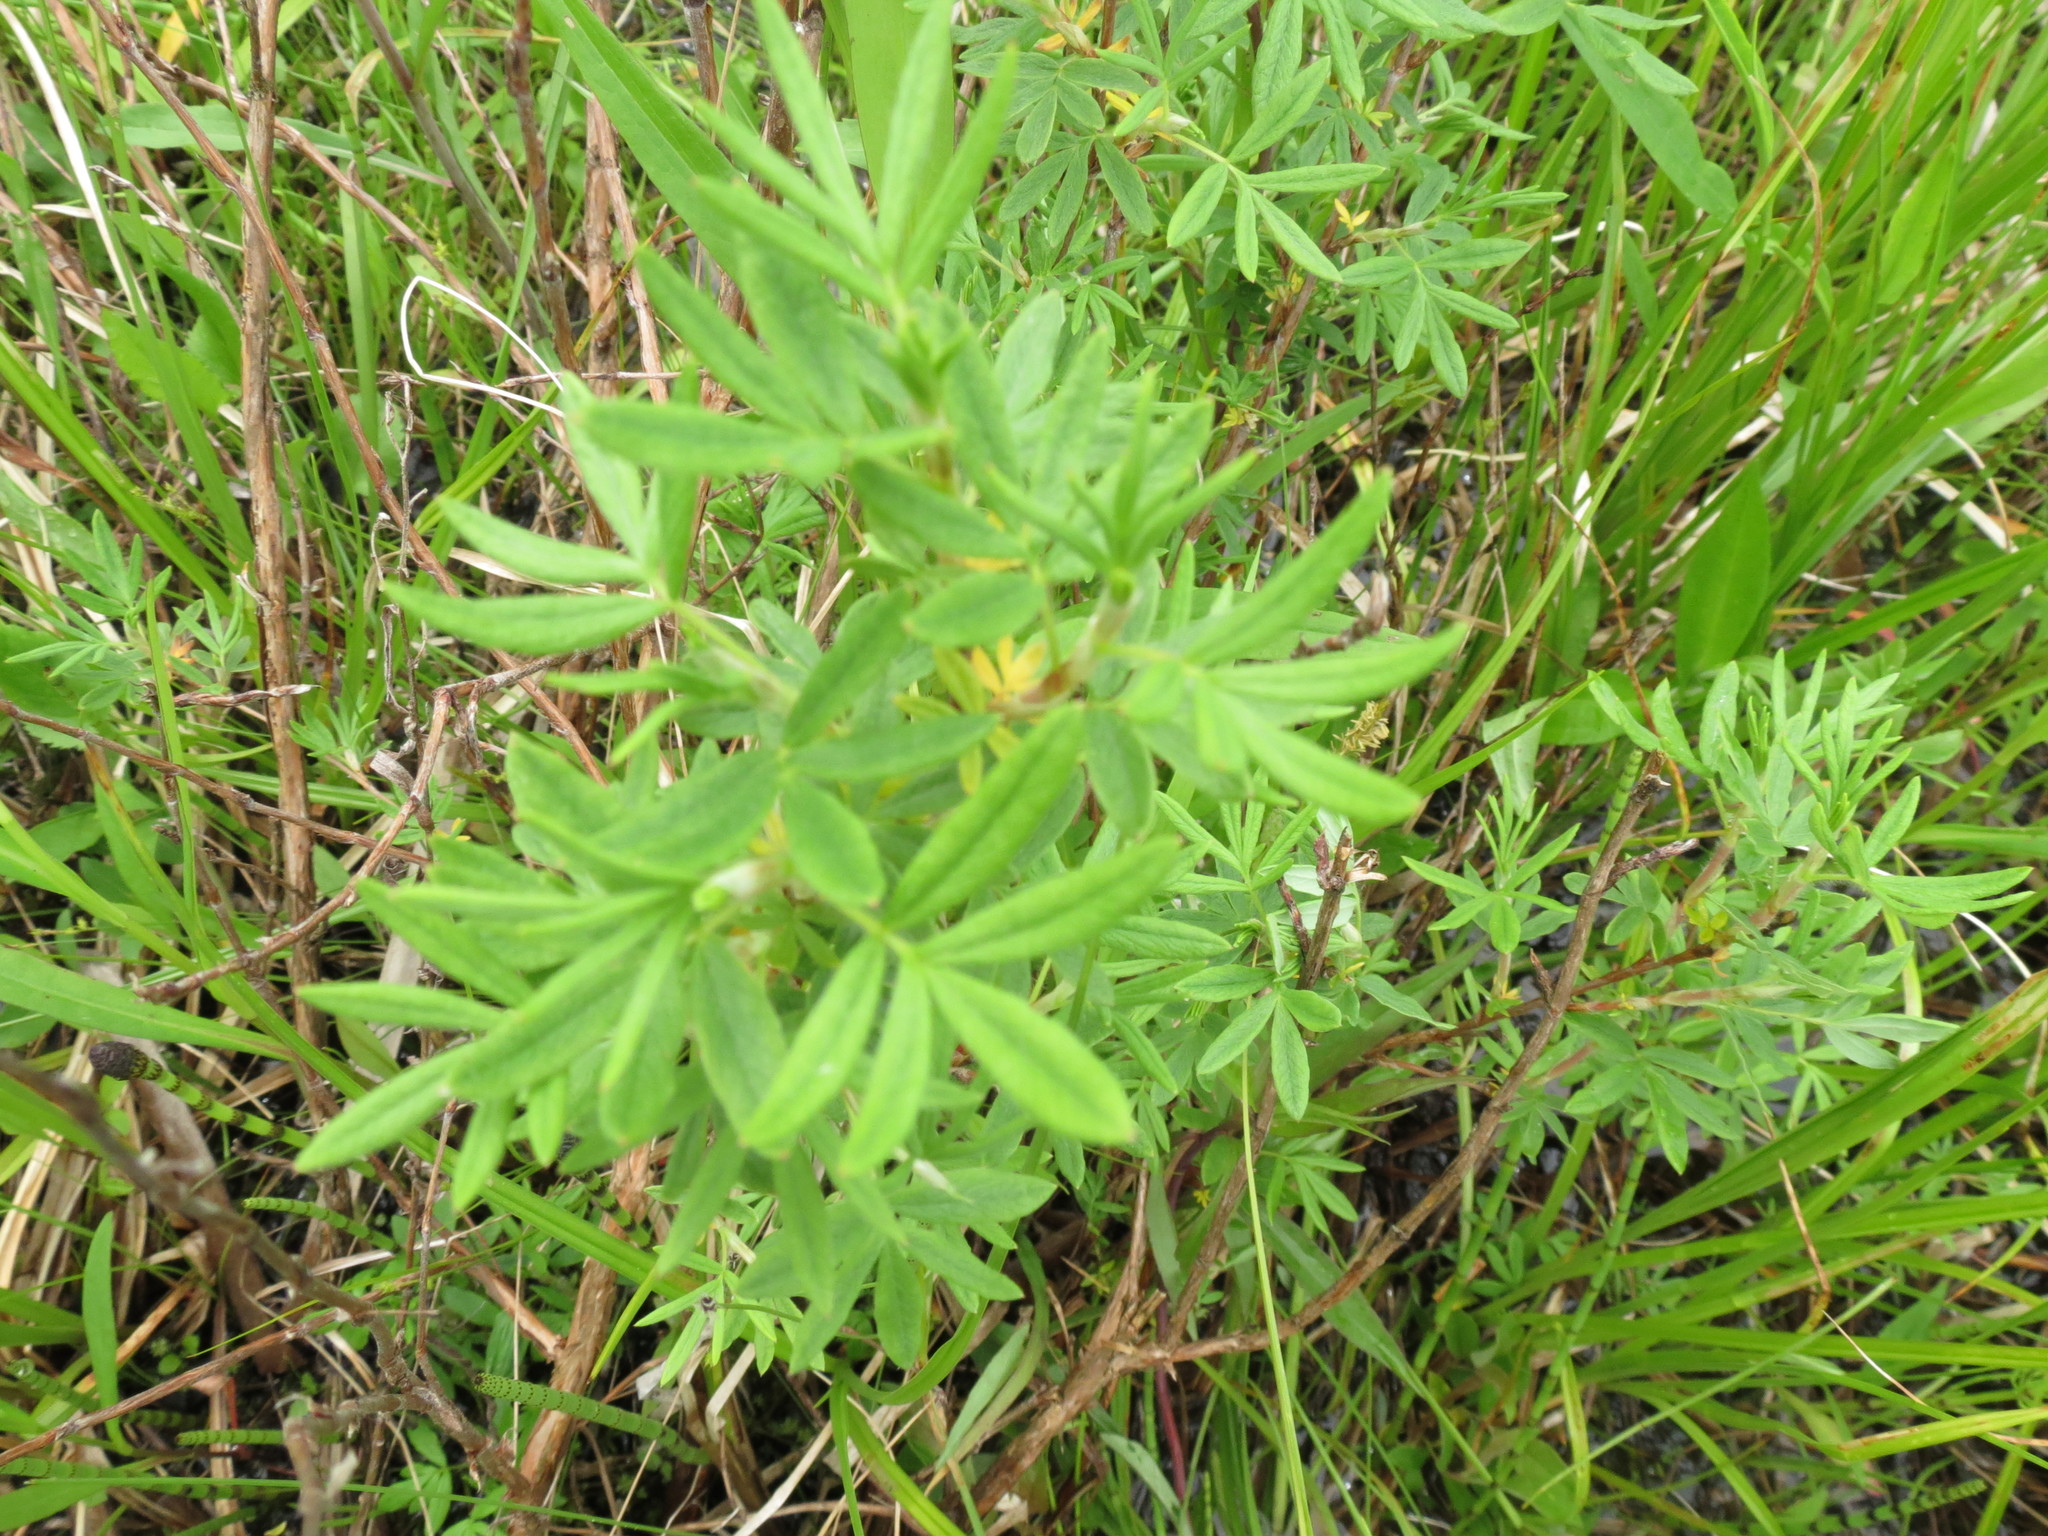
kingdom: Plantae
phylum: Tracheophyta
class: Magnoliopsida
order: Rosales
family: Rosaceae
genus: Dasiphora
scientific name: Dasiphora fruticosa
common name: Shrubby cinquefoil
